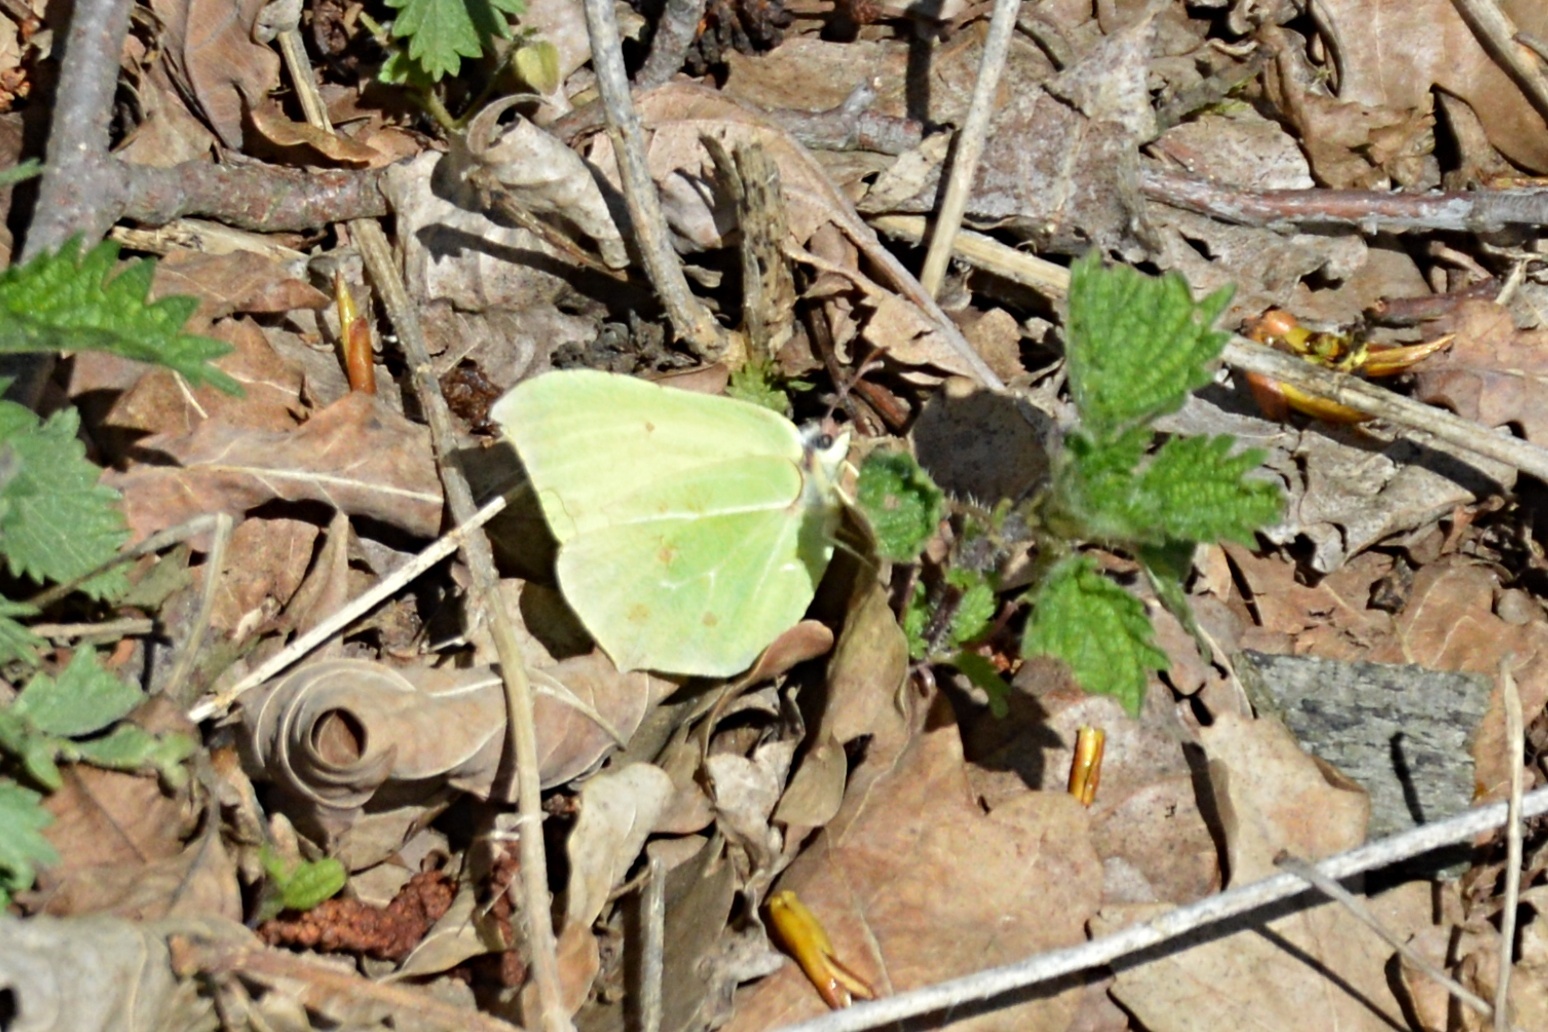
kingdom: Animalia
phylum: Arthropoda
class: Insecta
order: Lepidoptera
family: Pieridae
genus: Gonepteryx
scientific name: Gonepteryx rhamni
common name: Brimstone
